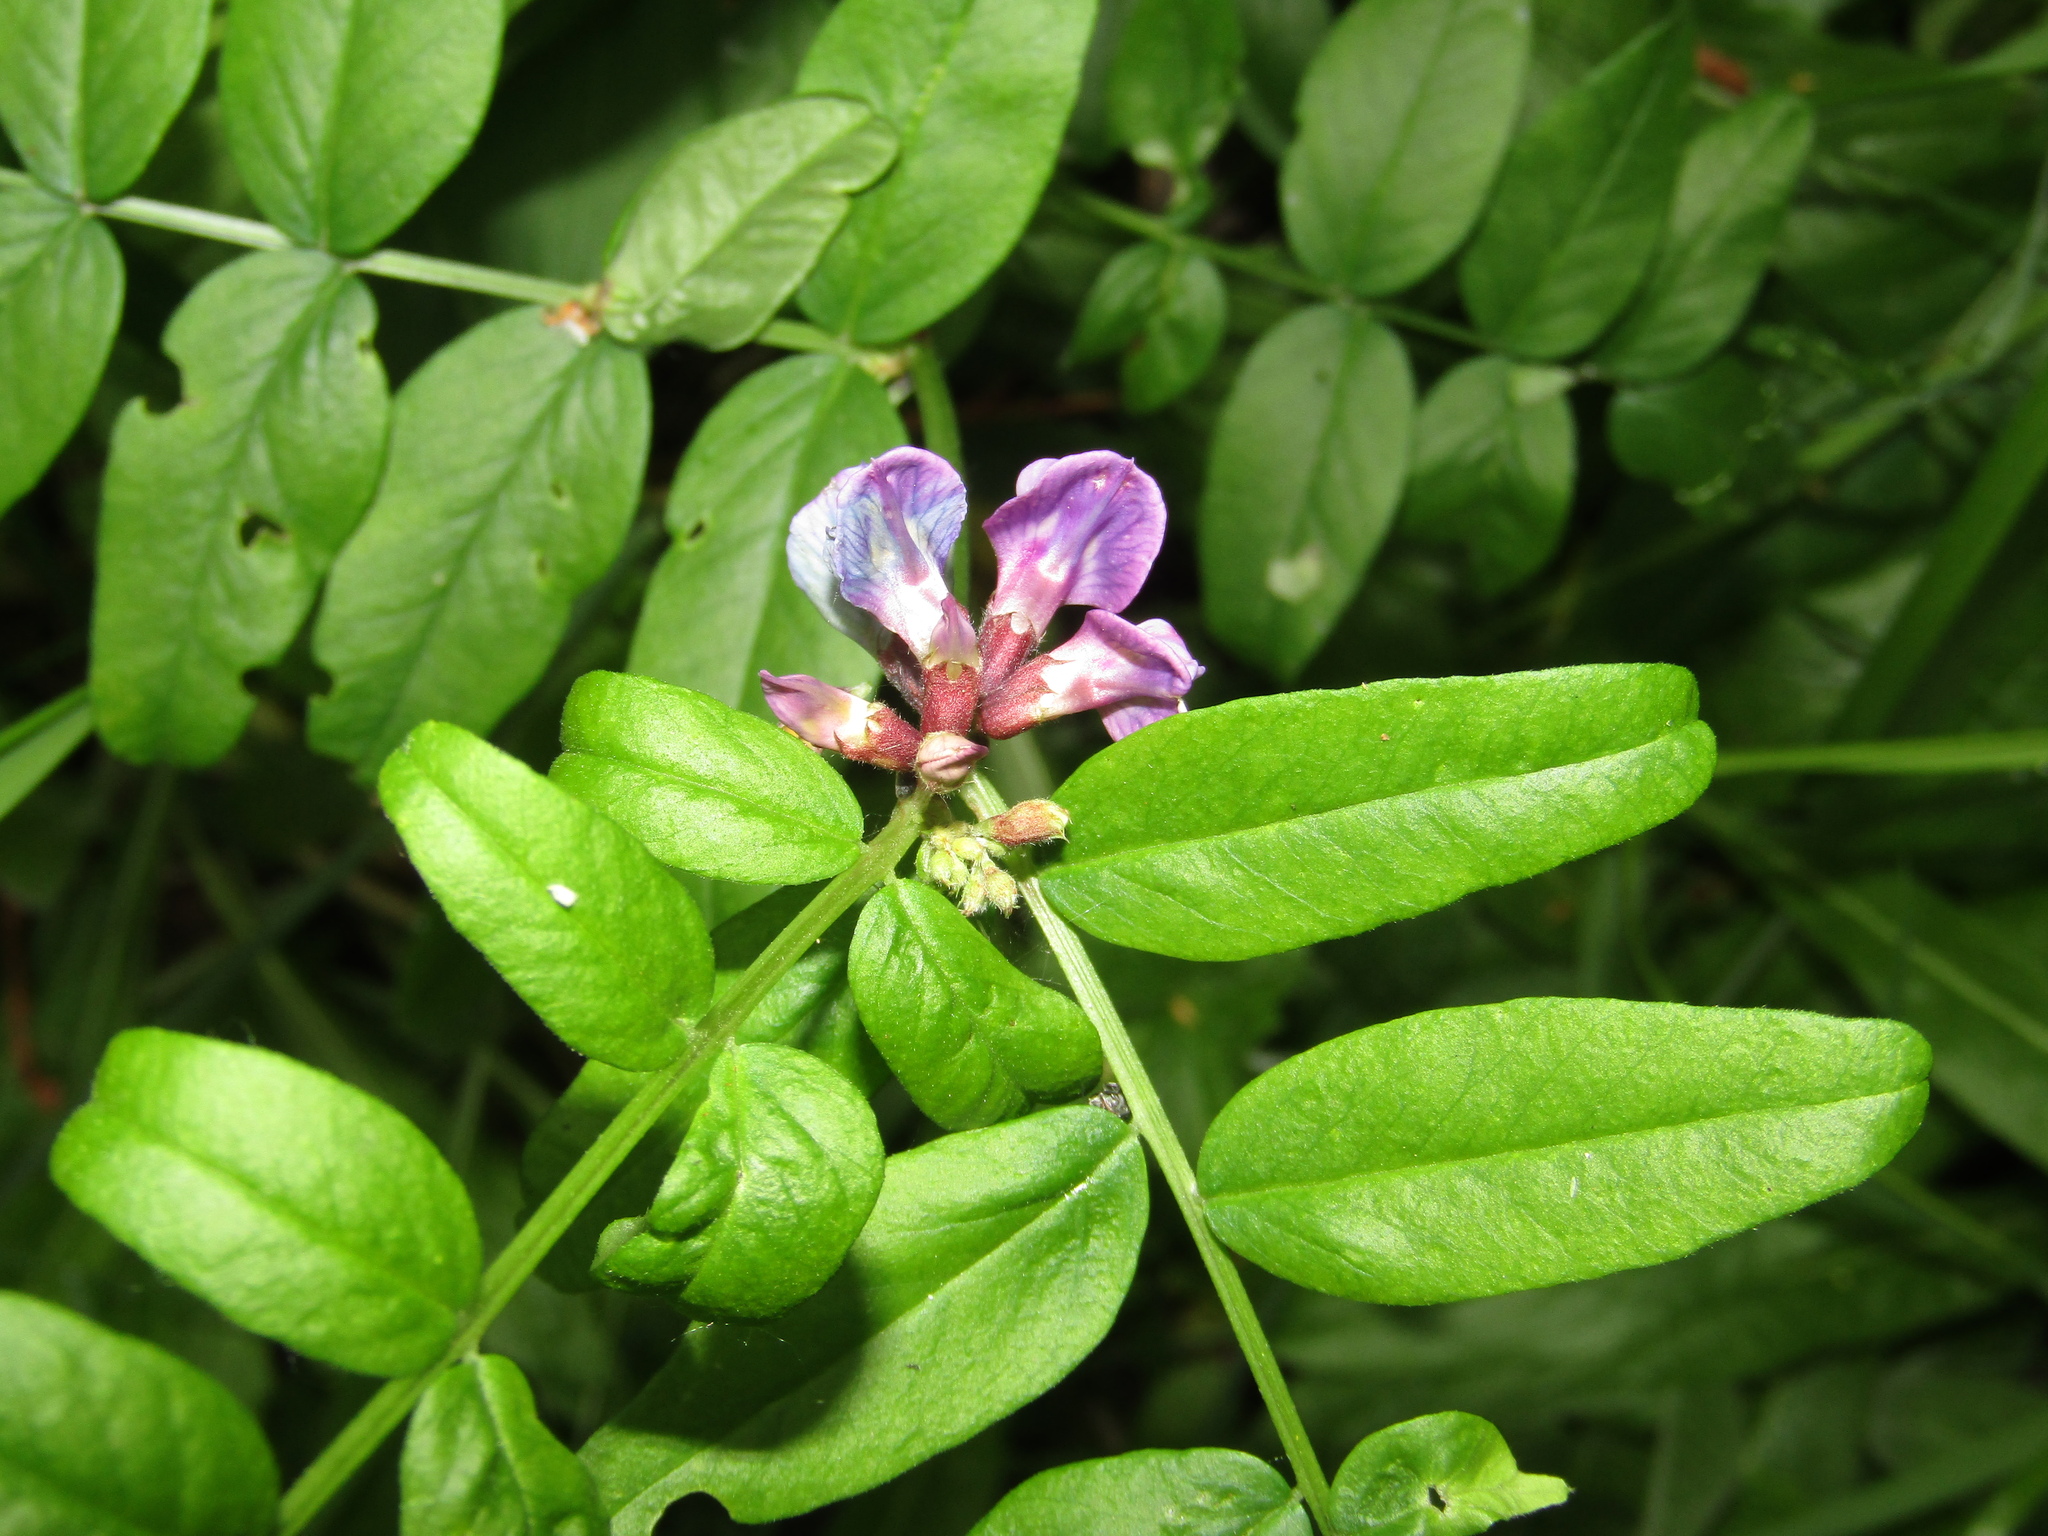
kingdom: Plantae
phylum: Tracheophyta
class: Magnoliopsida
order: Fabales
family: Fabaceae
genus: Vicia
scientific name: Vicia sepium
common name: Bush vetch
